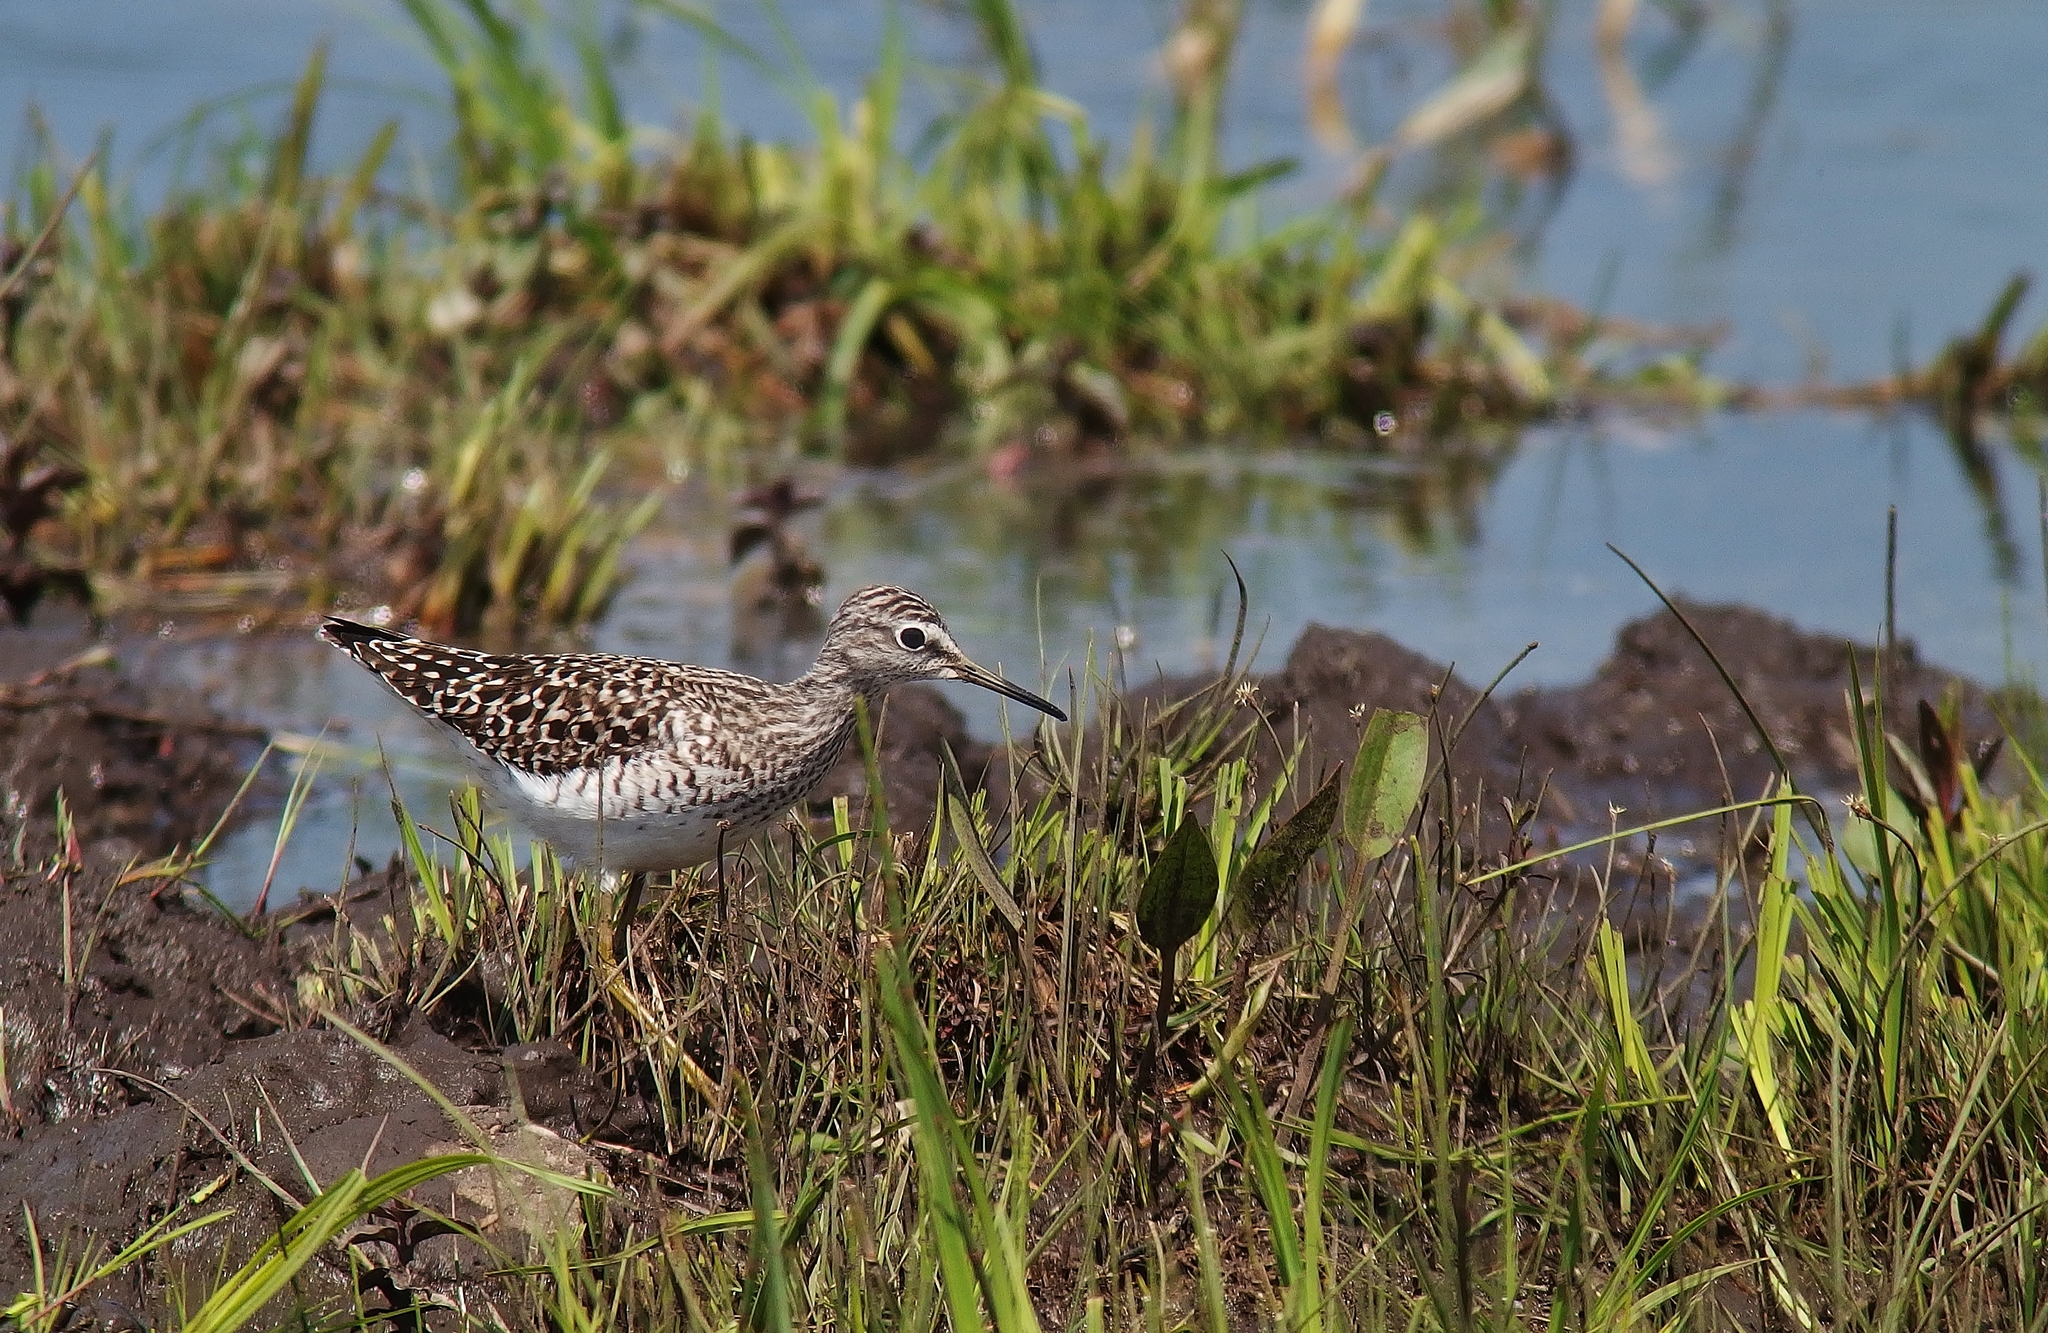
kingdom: Animalia
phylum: Chordata
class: Aves
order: Charadriiformes
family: Scolopacidae
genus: Tringa
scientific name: Tringa glareola
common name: Wood sandpiper
